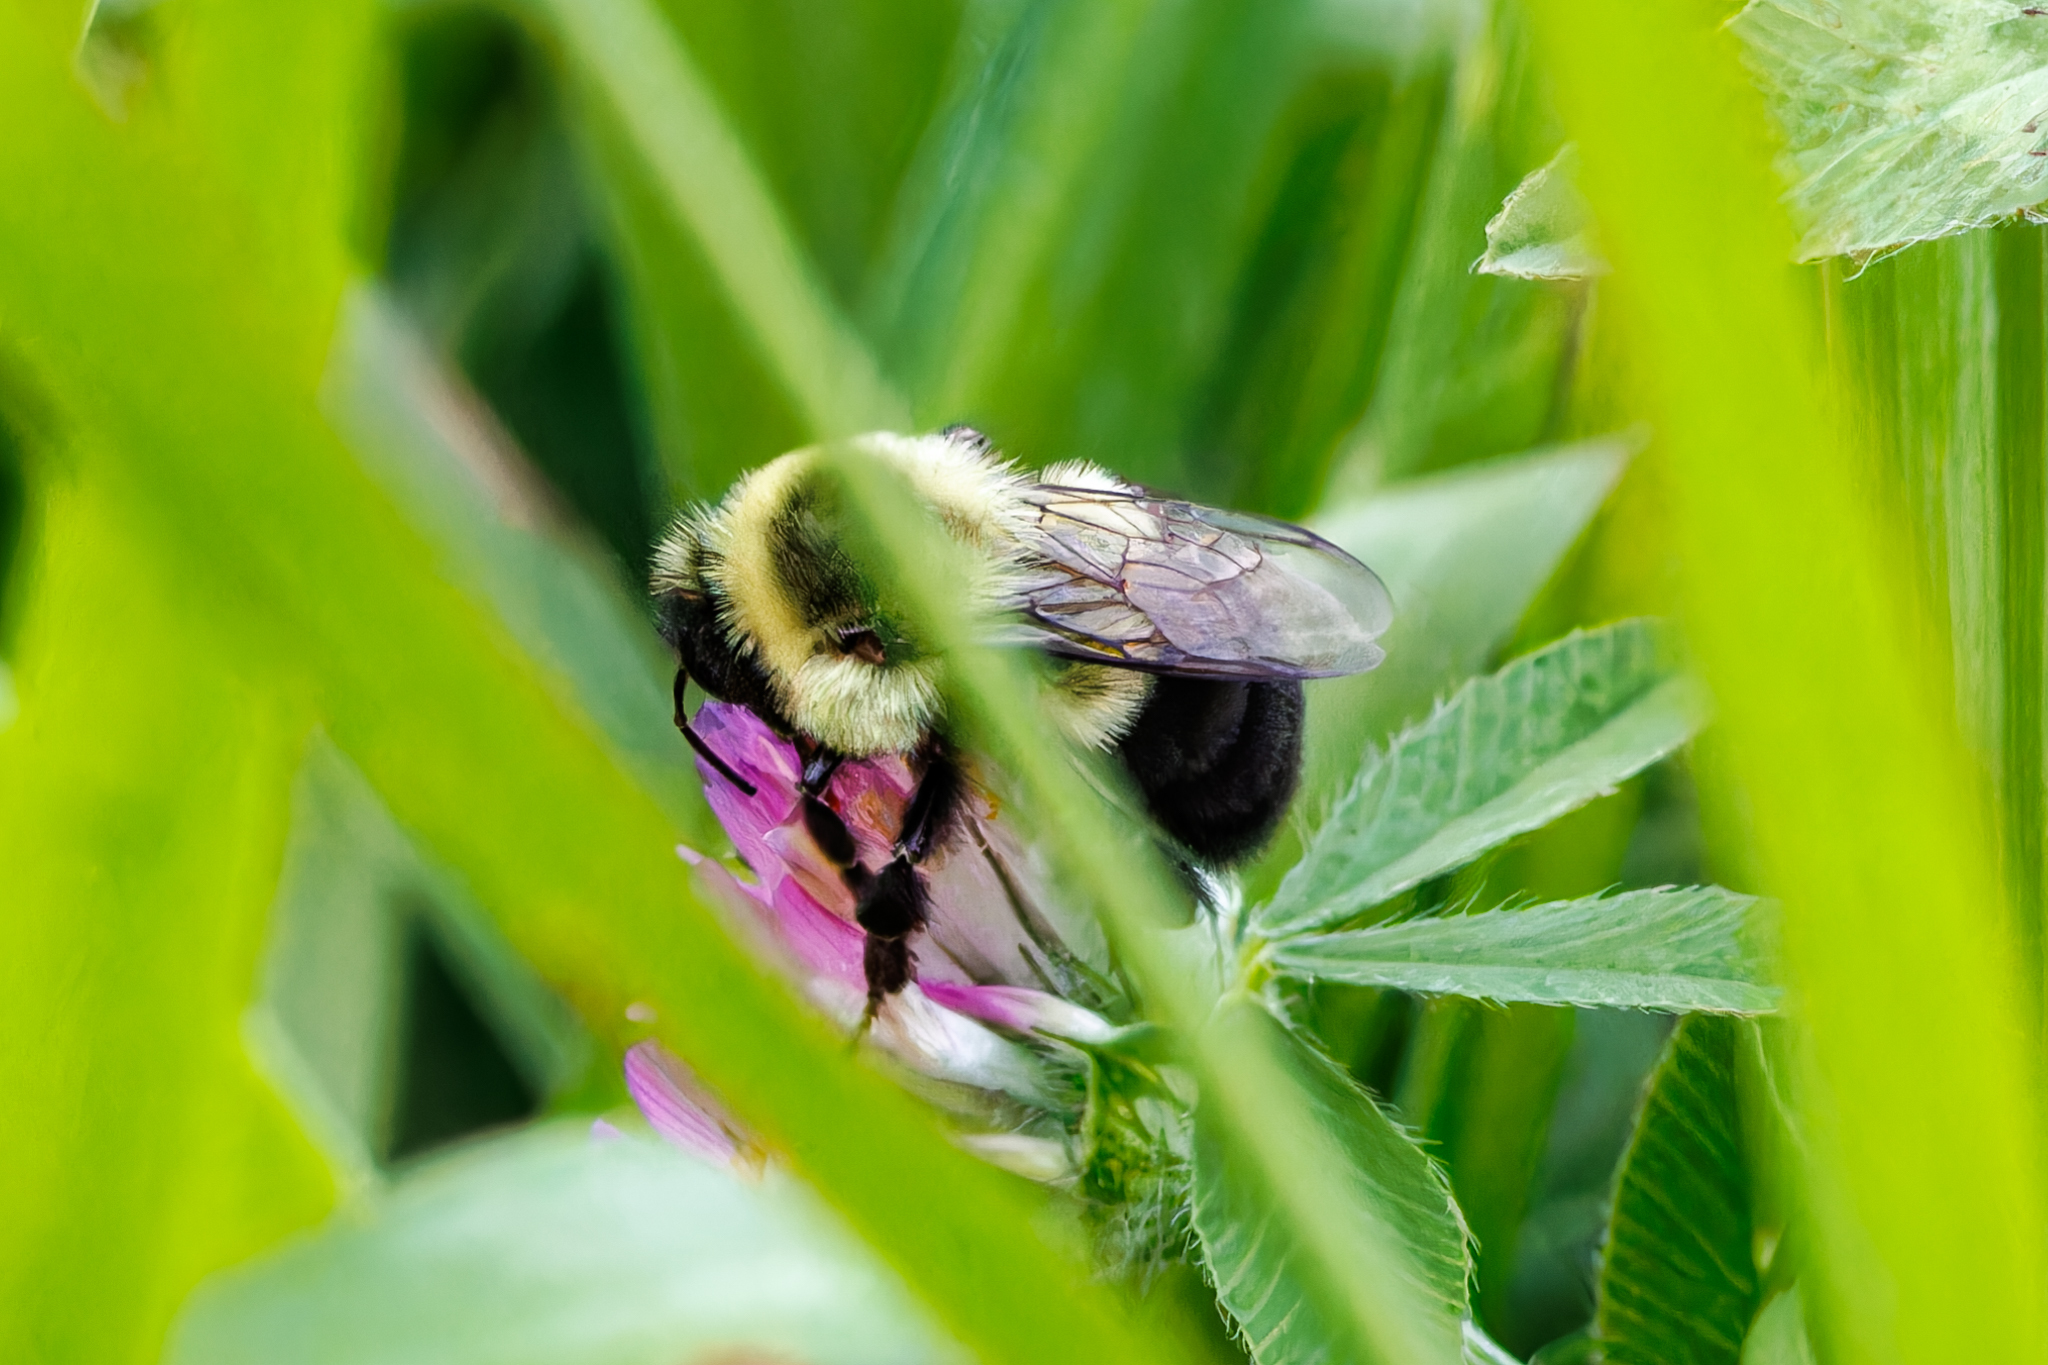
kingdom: Animalia
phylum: Arthropoda
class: Insecta
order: Hymenoptera
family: Apidae
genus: Bombus
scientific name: Bombus impatiens
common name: Common eastern bumble bee
